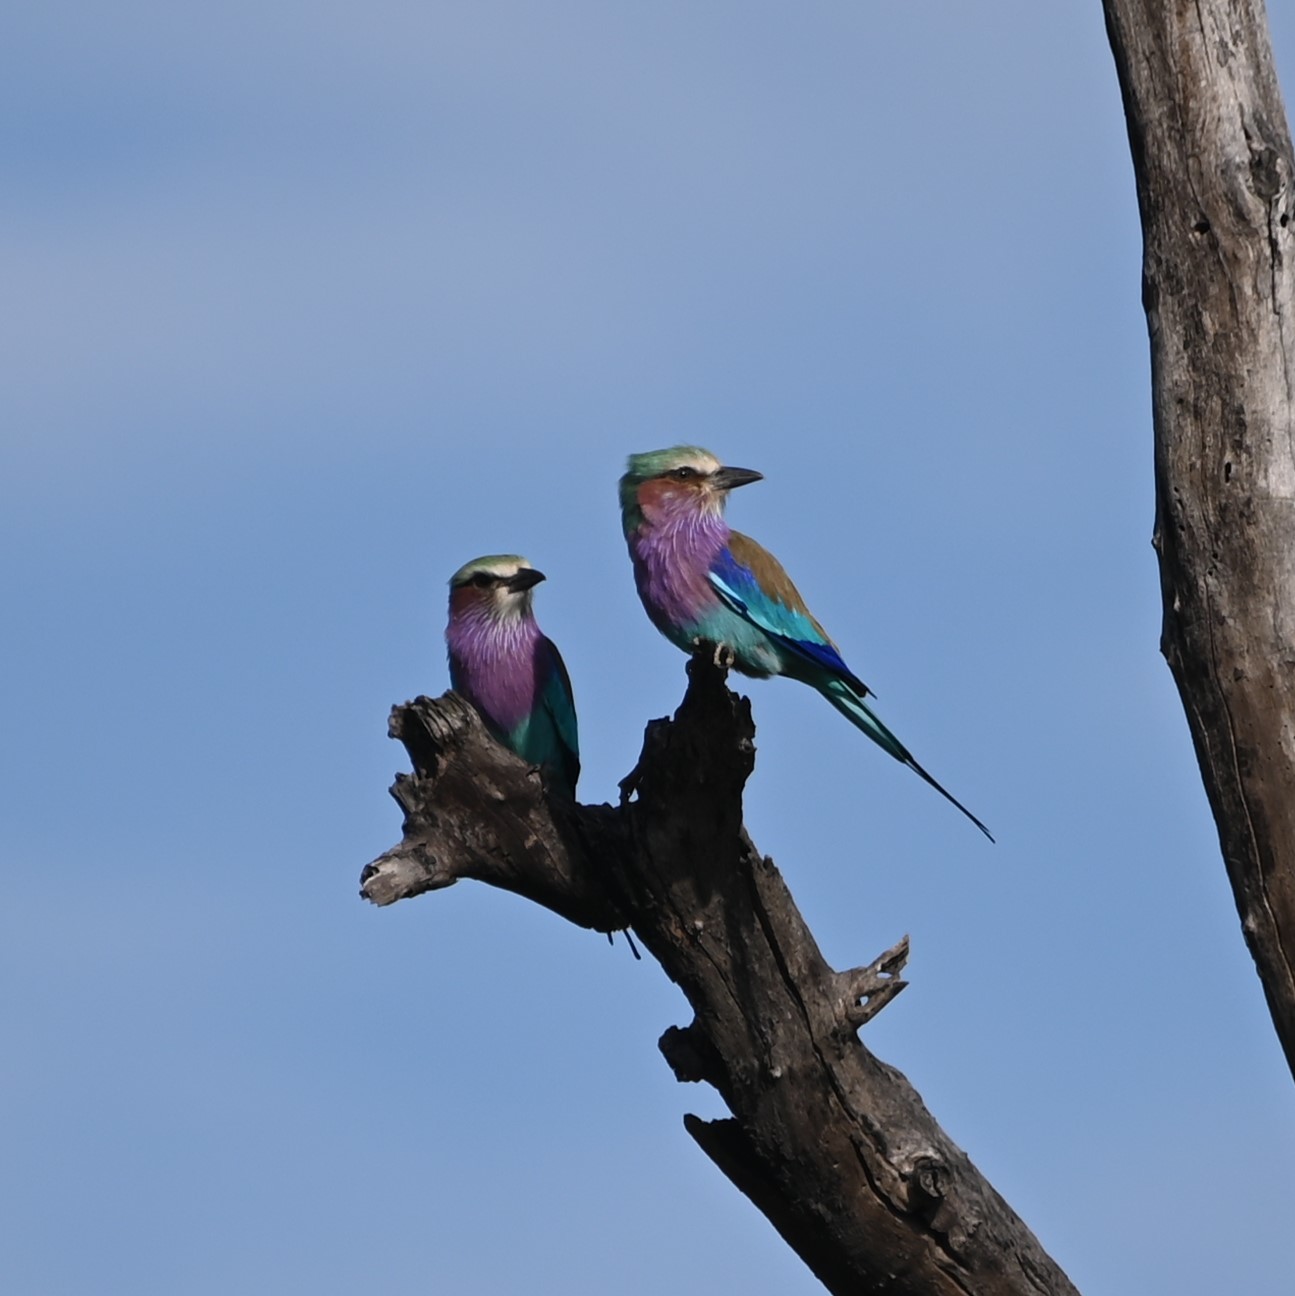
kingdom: Animalia
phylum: Chordata
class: Aves
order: Coraciiformes
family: Coraciidae
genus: Coracias
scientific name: Coracias caudatus
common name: Lilac-breasted roller
